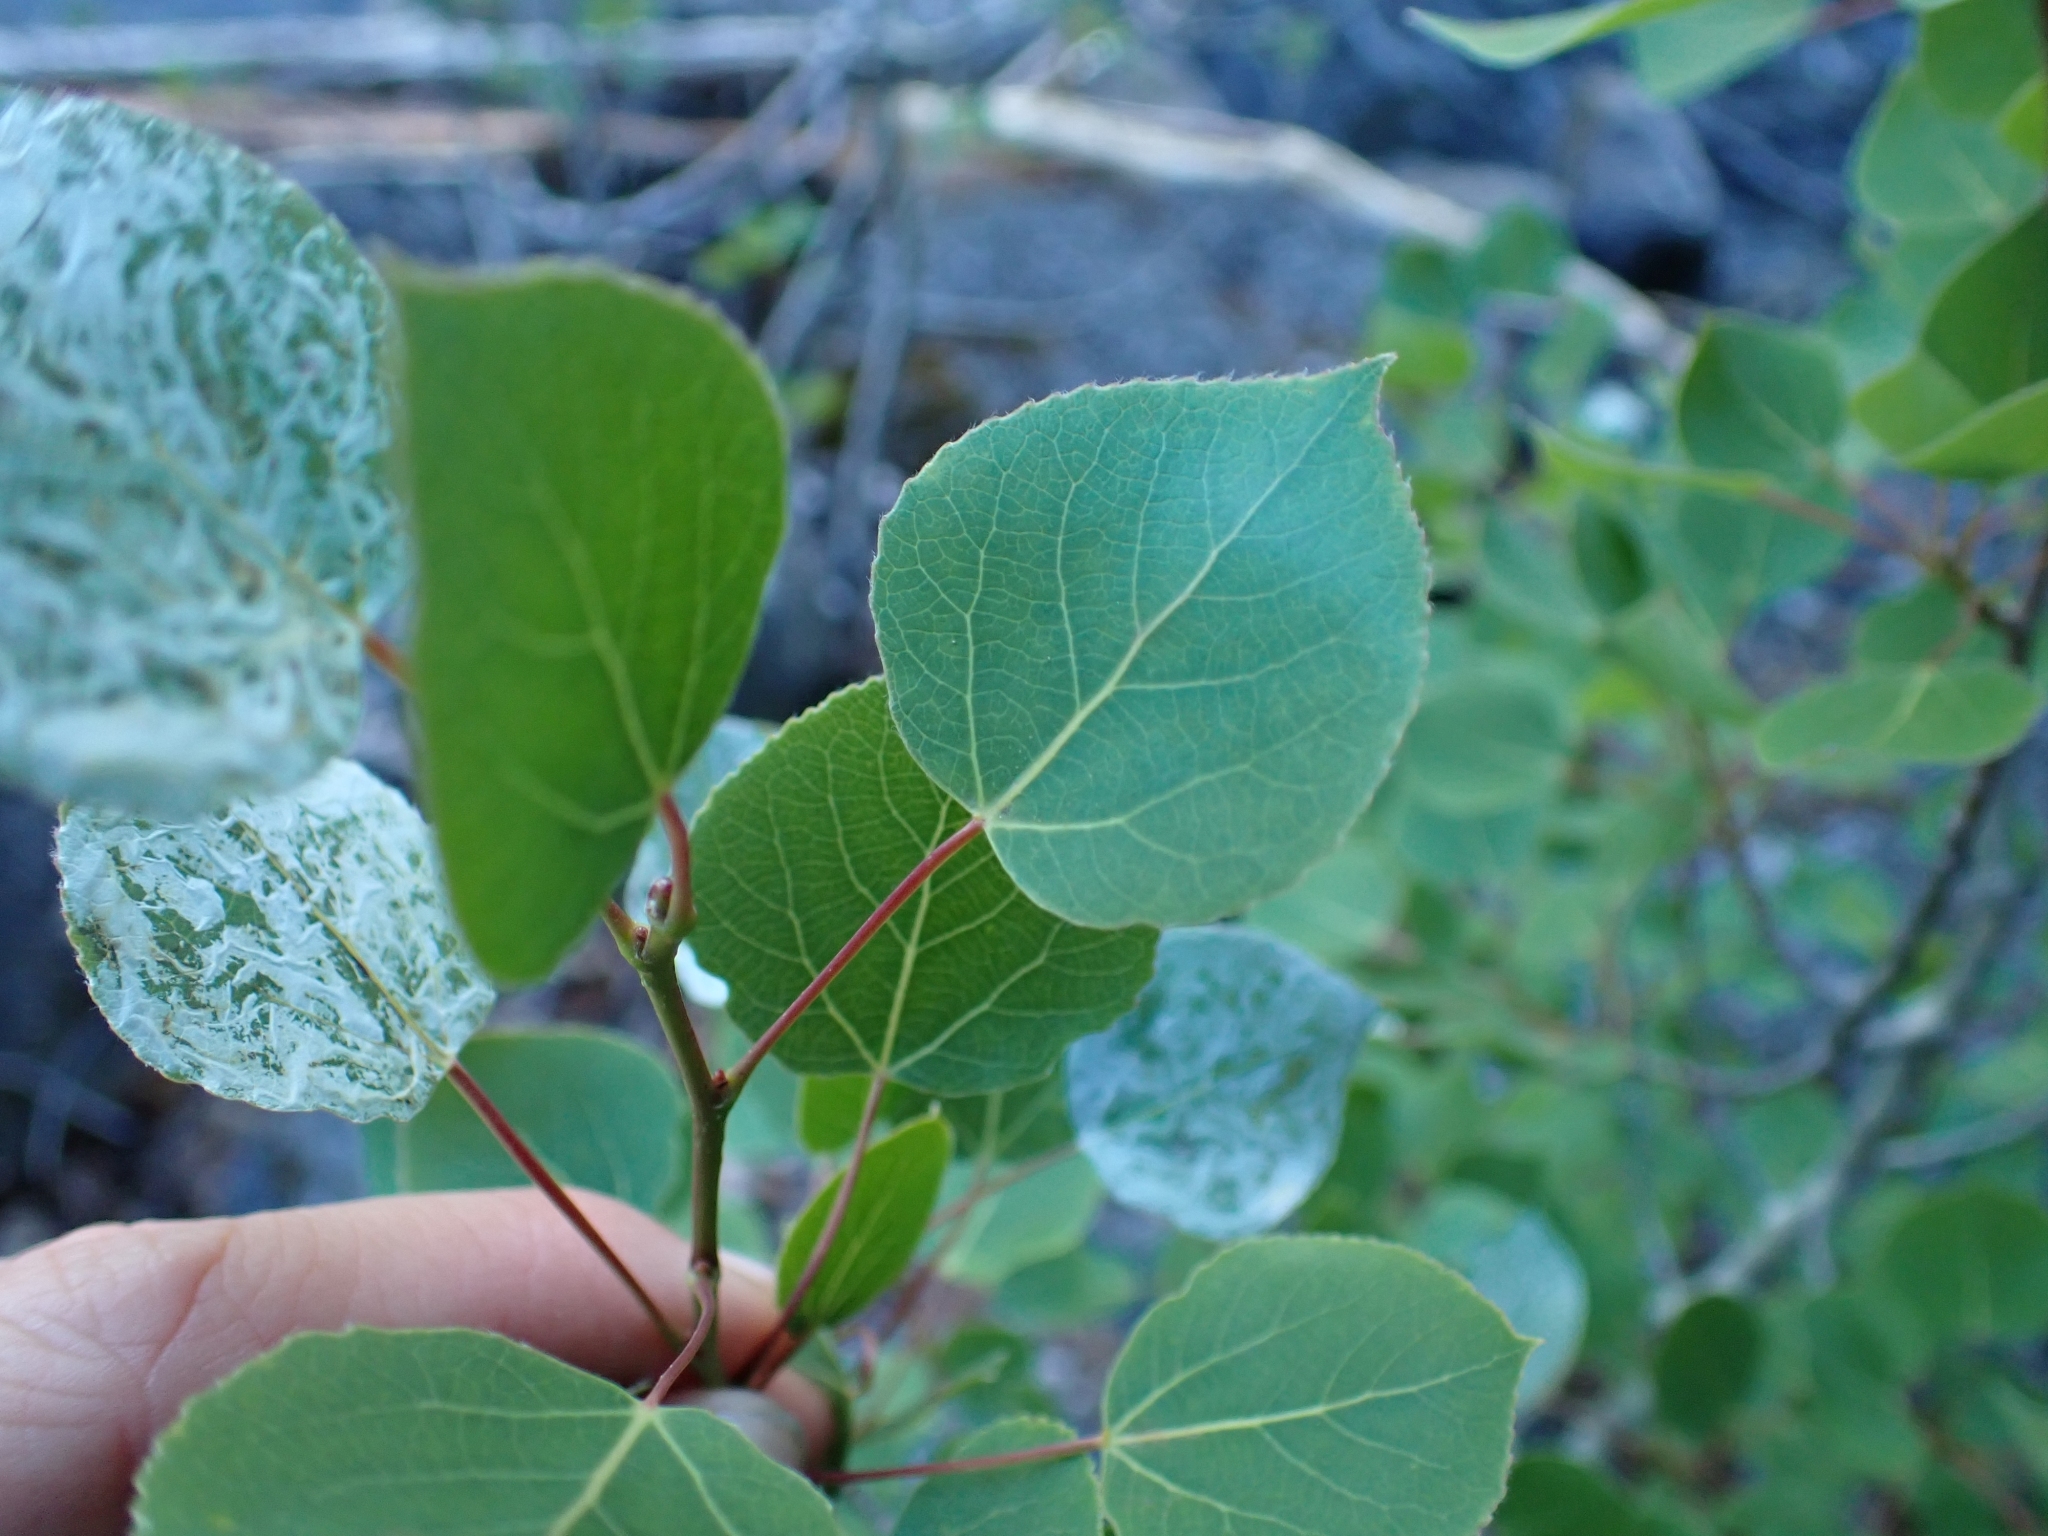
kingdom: Plantae
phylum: Tracheophyta
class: Magnoliopsida
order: Malpighiales
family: Salicaceae
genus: Populus
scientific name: Populus tremuloides
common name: Quaking aspen
